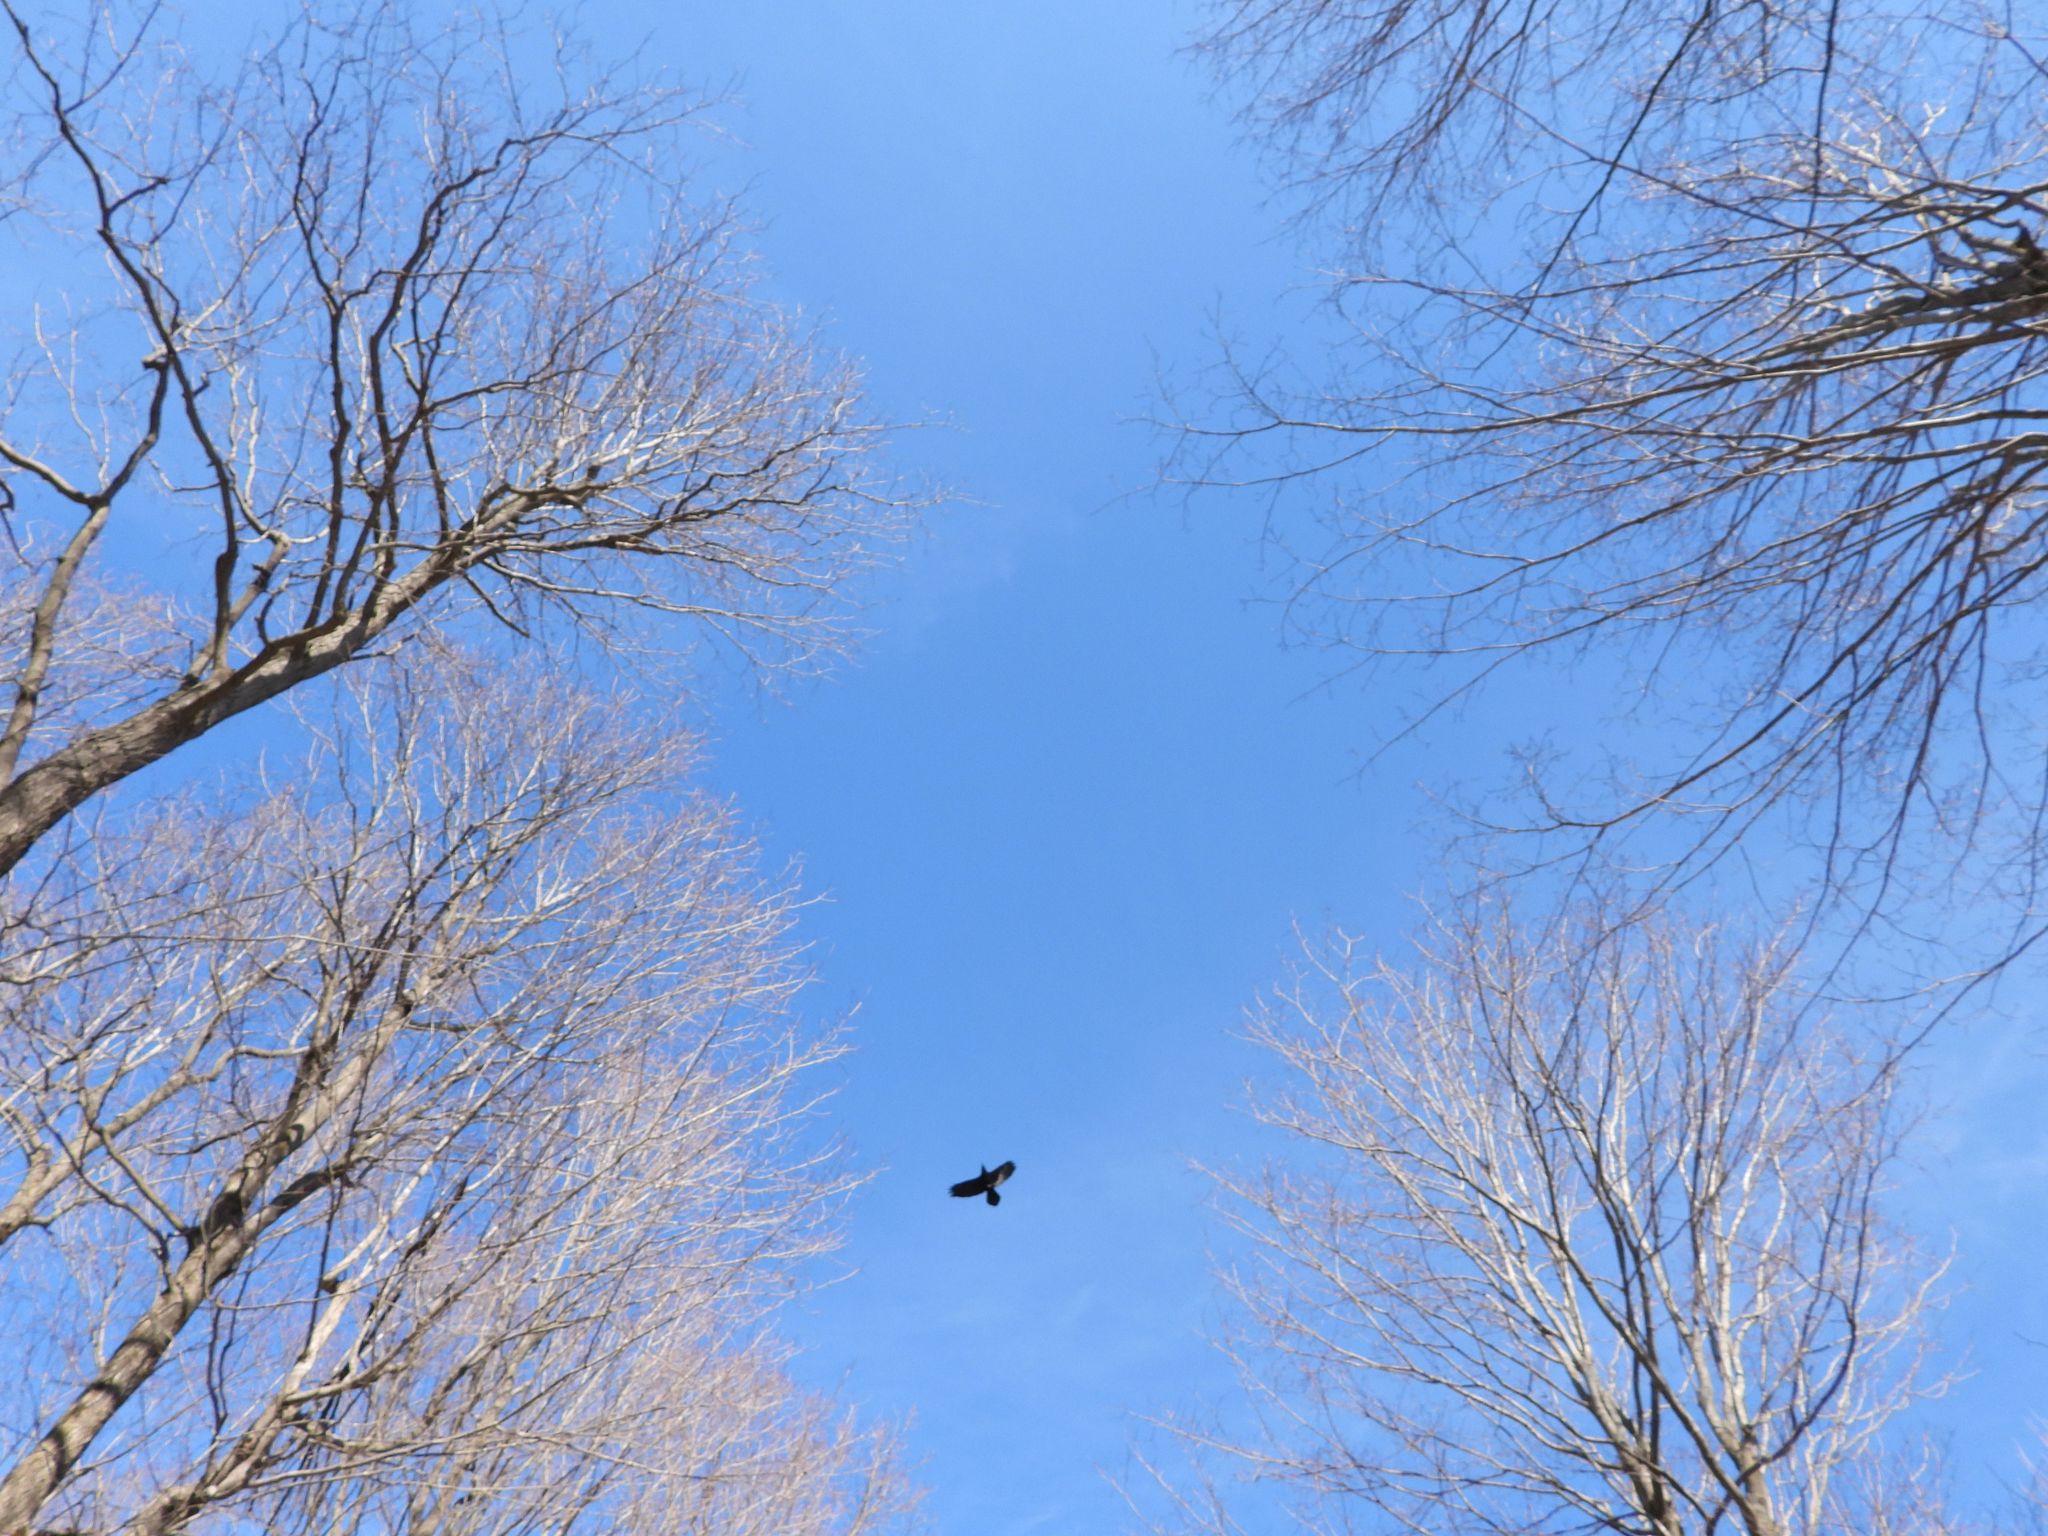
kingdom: Animalia
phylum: Chordata
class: Aves
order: Passeriformes
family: Corvidae
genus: Corvus
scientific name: Corvus corax
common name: Common raven
